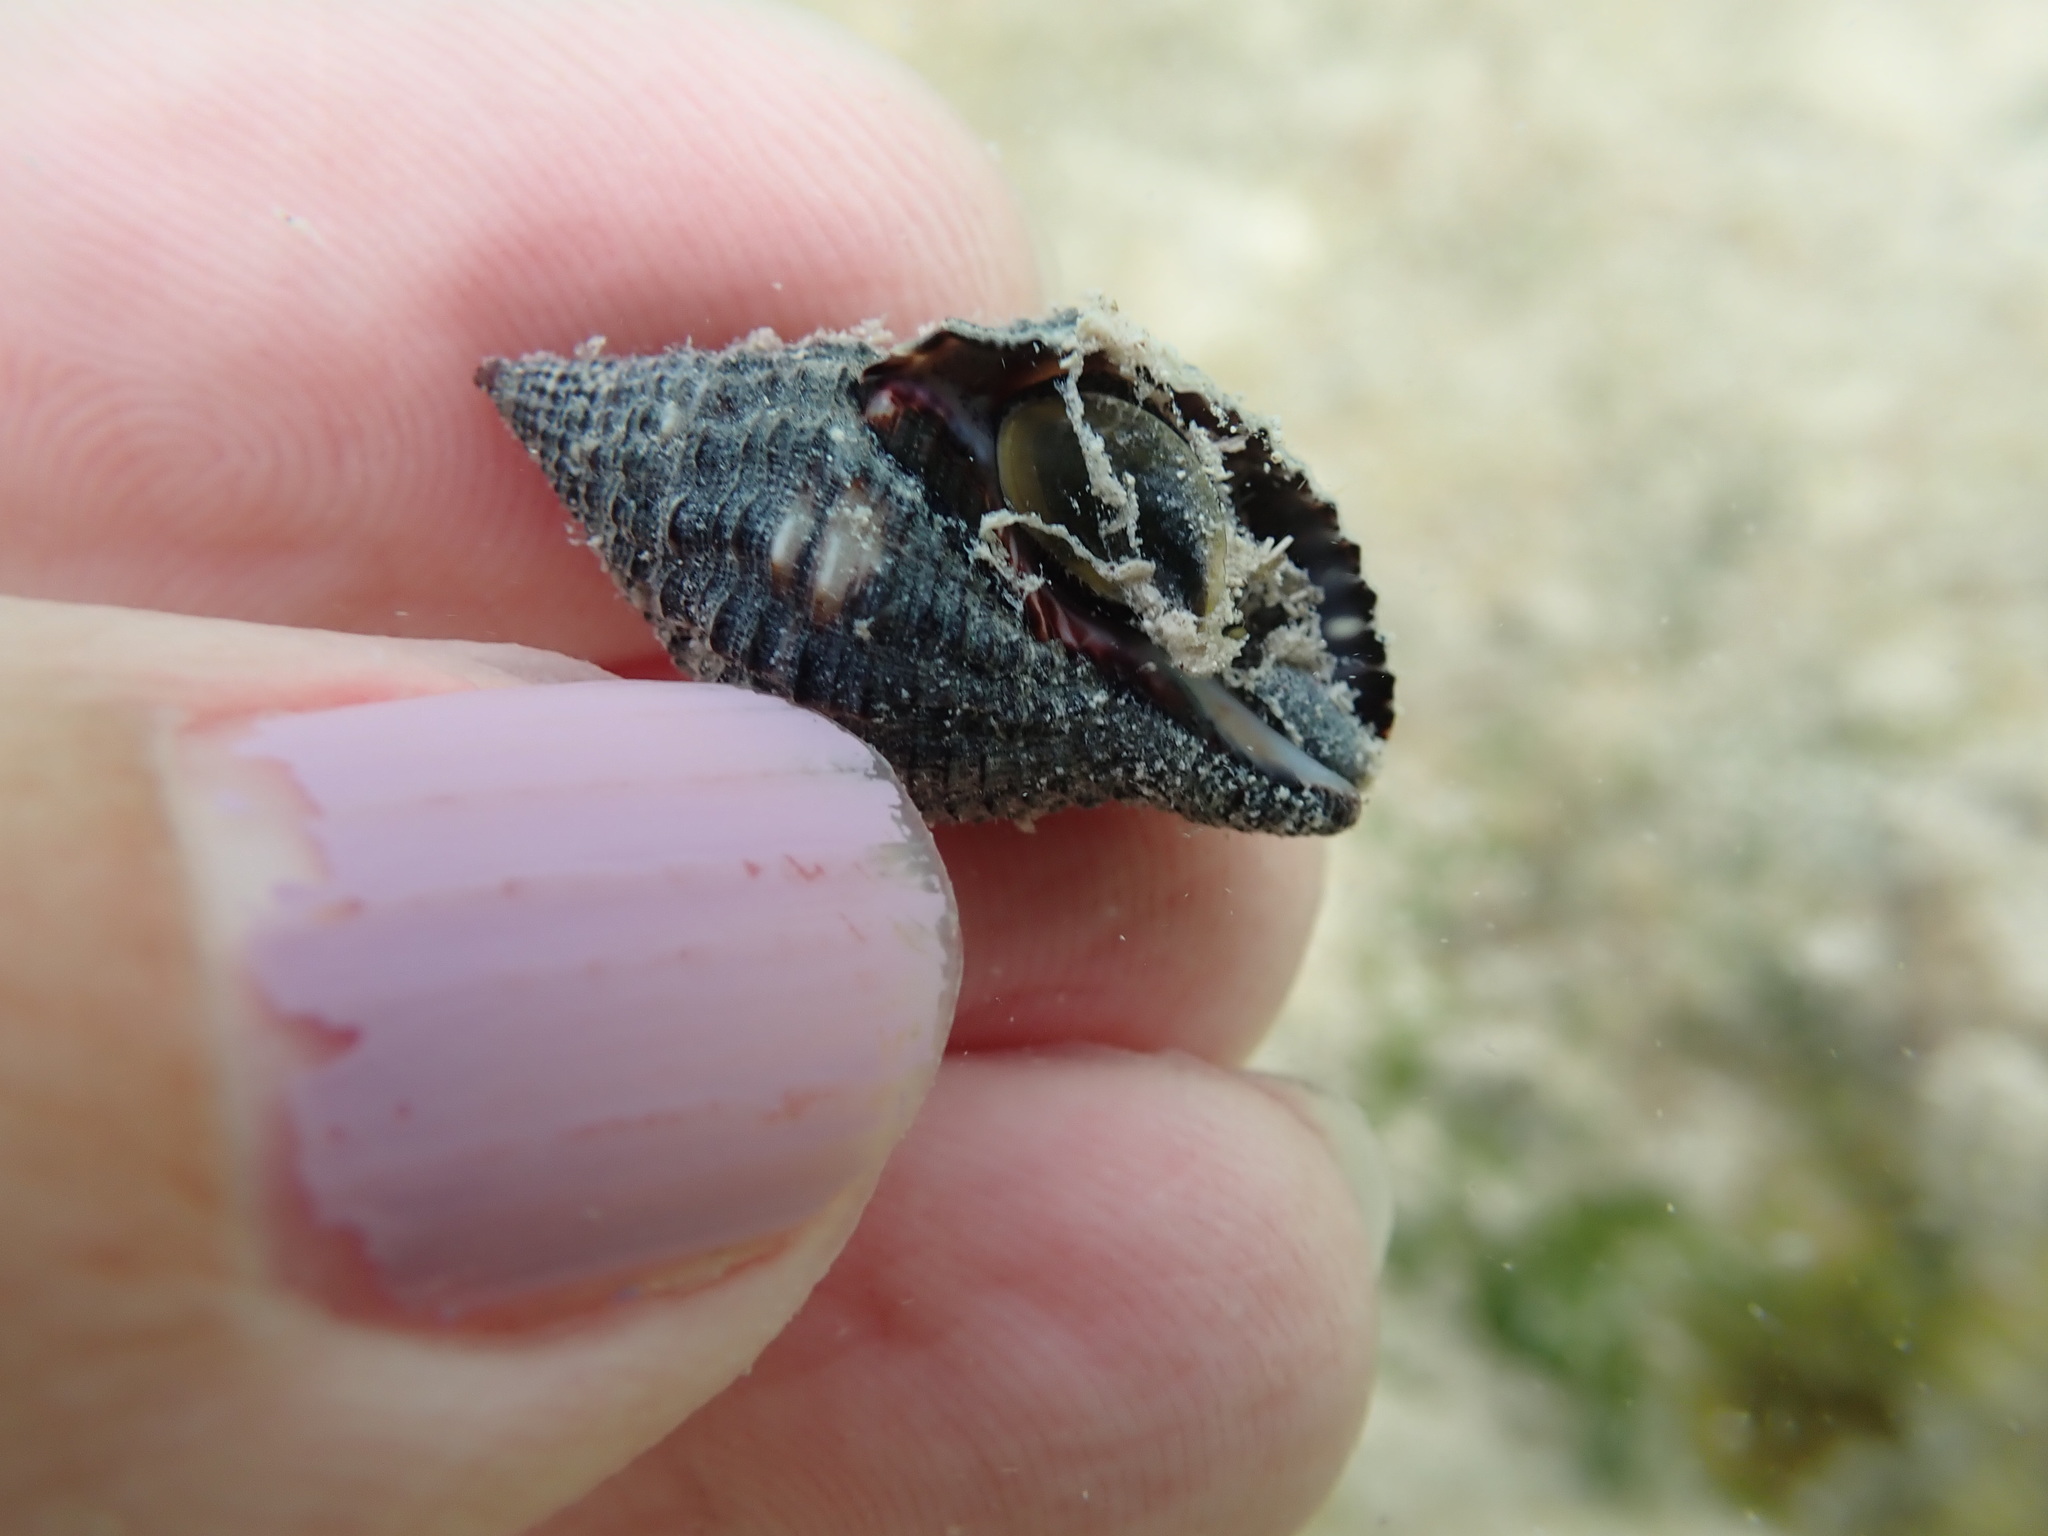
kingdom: Animalia
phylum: Mollusca
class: Gastropoda
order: Neogastropoda
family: Pisaniidae
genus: Gemophos
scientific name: Gemophos tinctus
